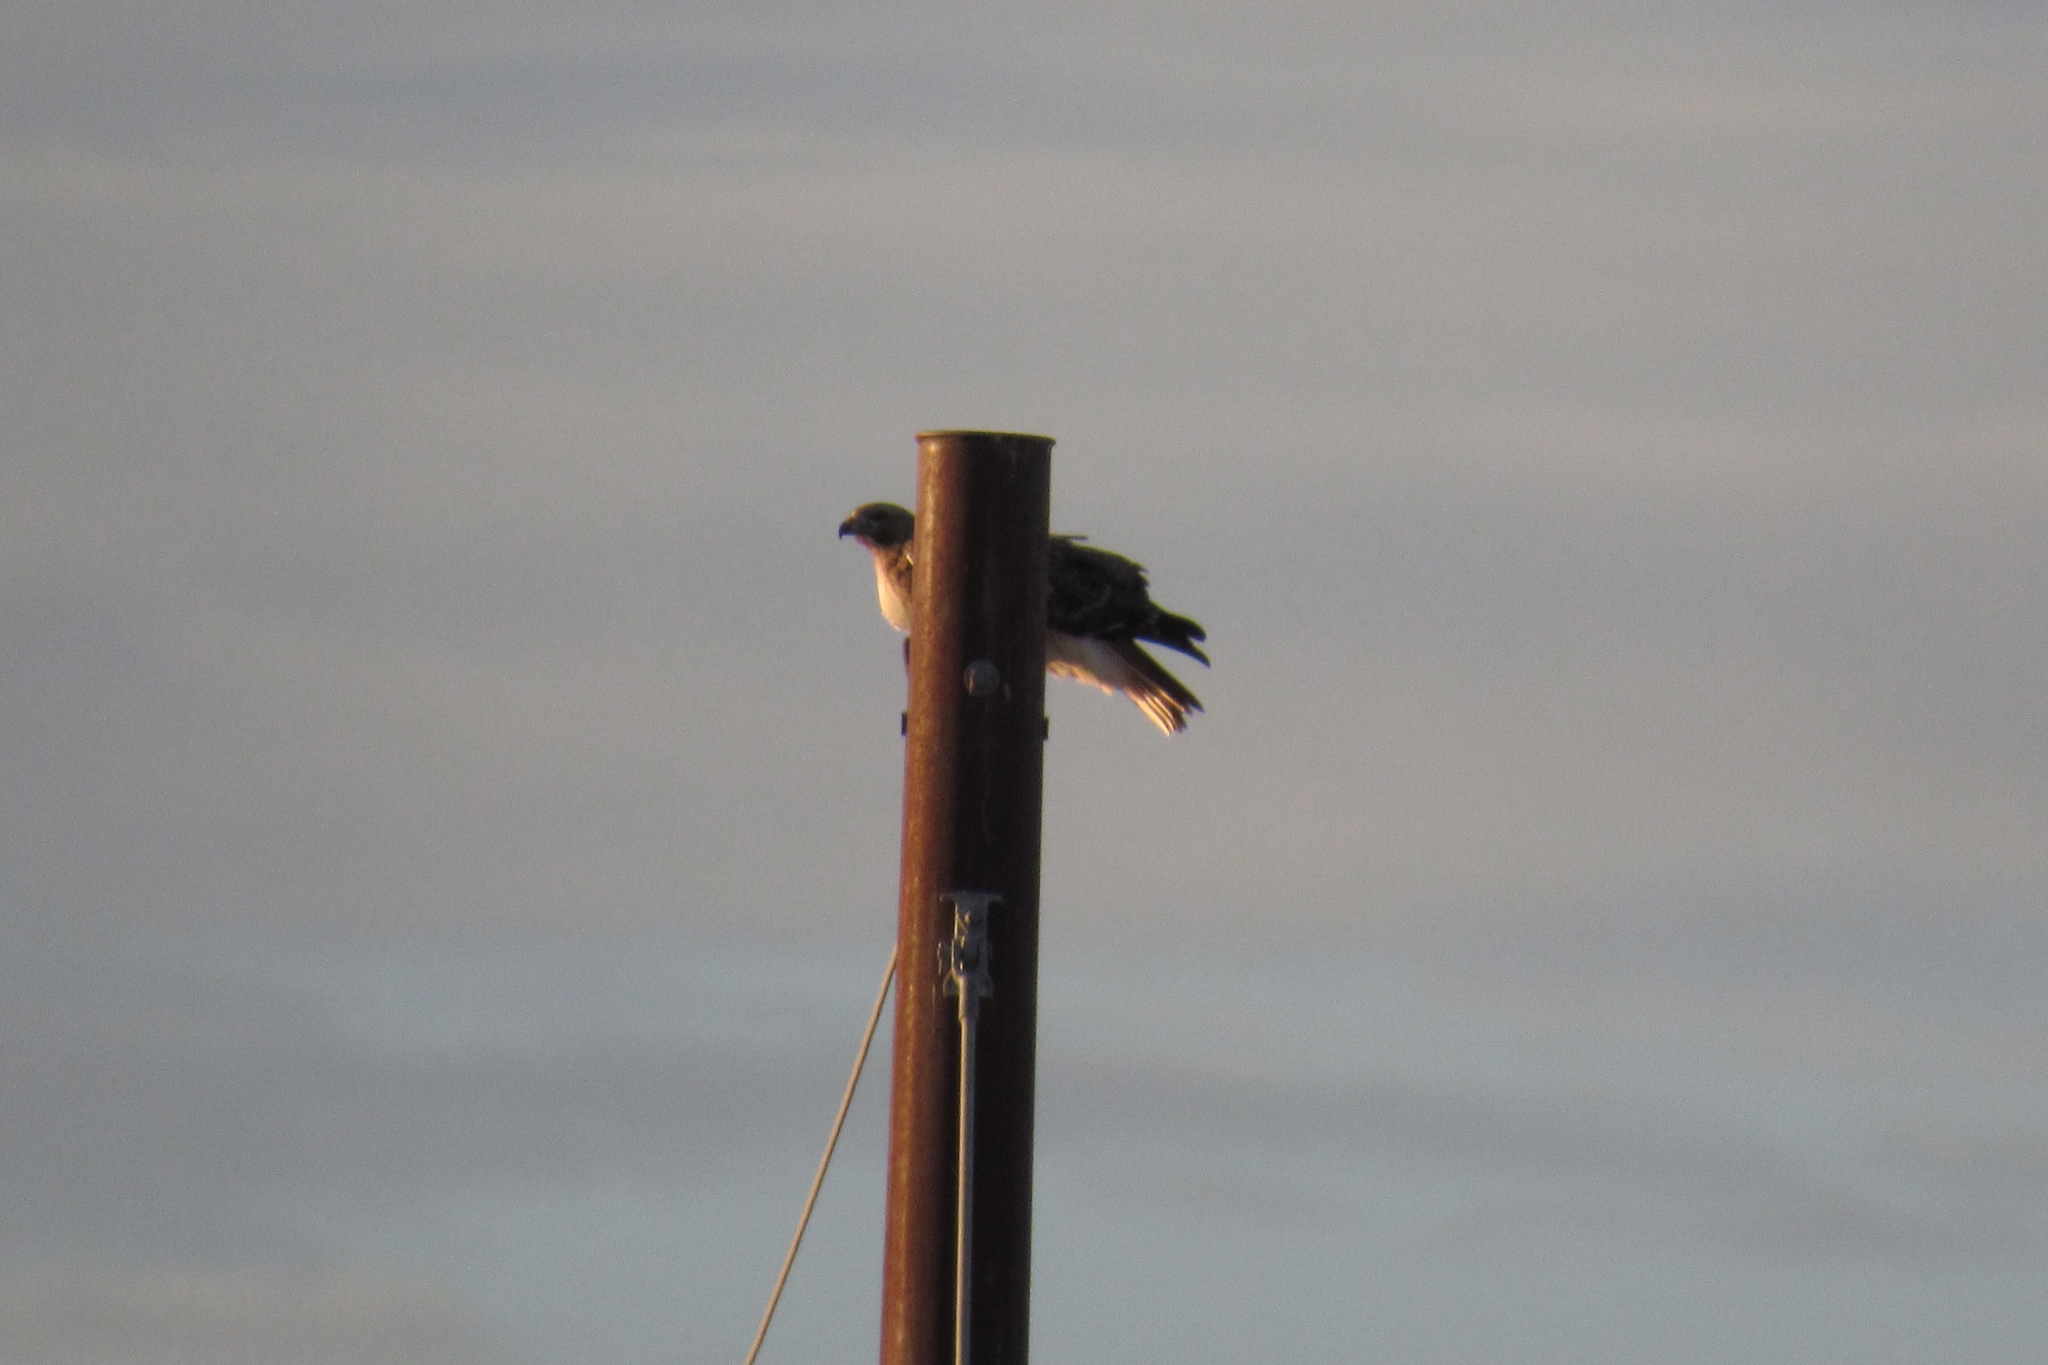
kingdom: Animalia
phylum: Chordata
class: Aves
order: Accipitriformes
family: Accipitridae
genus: Buteo
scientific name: Buteo jamaicensis
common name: Red-tailed hawk
